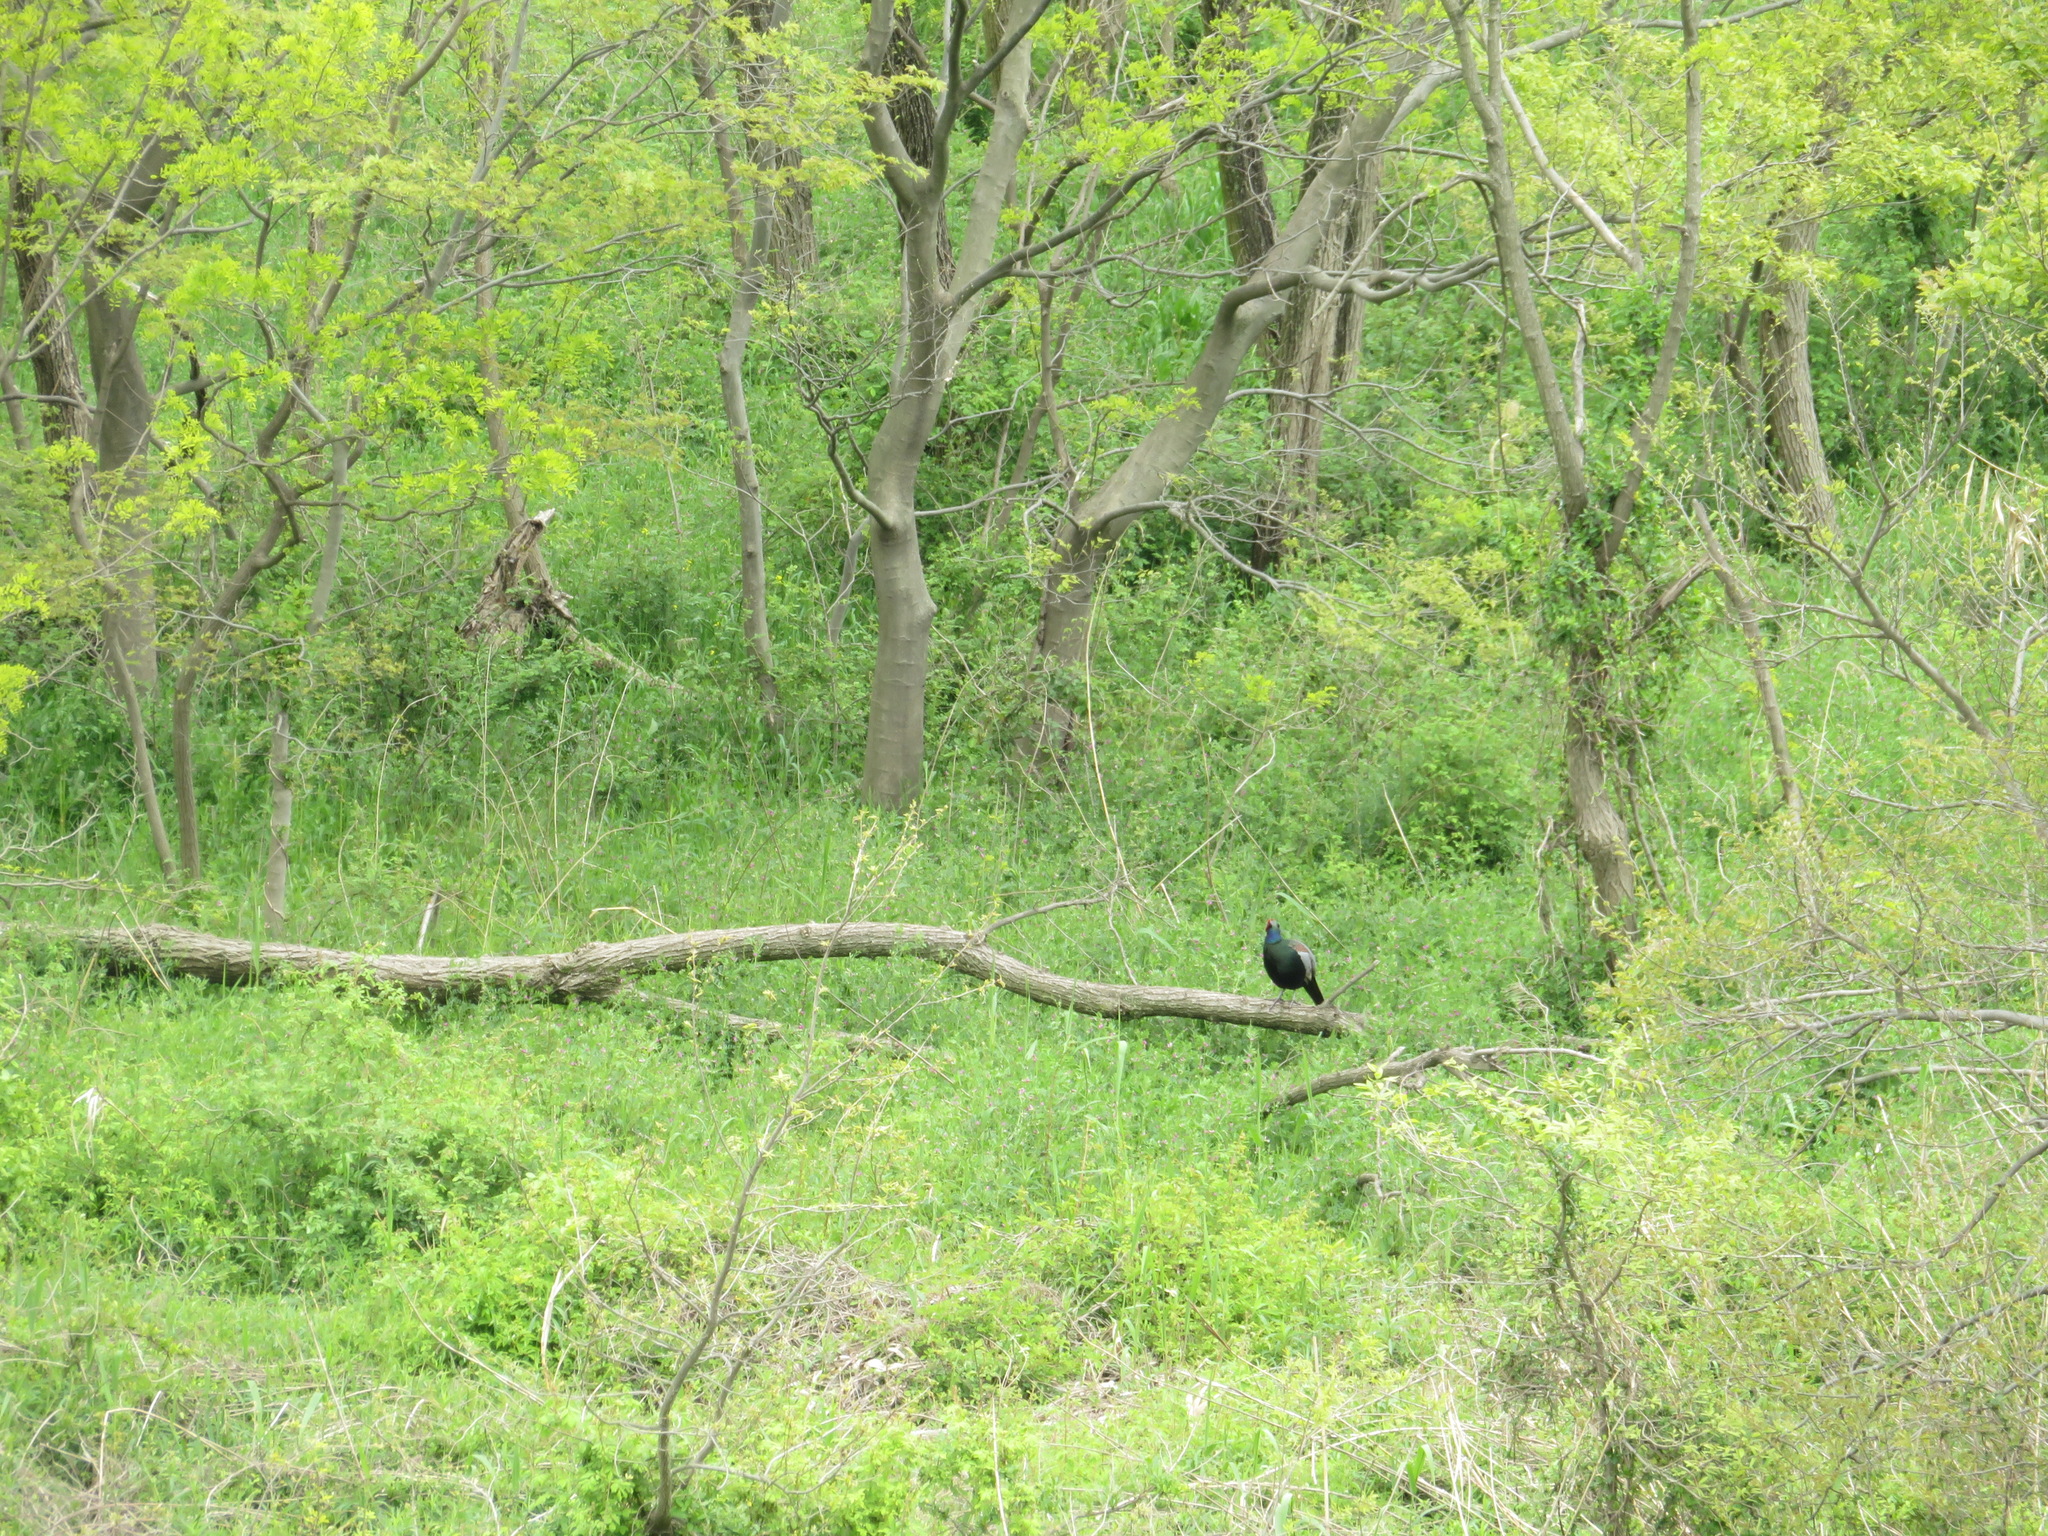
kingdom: Animalia
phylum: Chordata
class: Aves
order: Galliformes
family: Phasianidae
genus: Phasianus
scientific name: Phasianus versicolor
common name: Green pheasant
